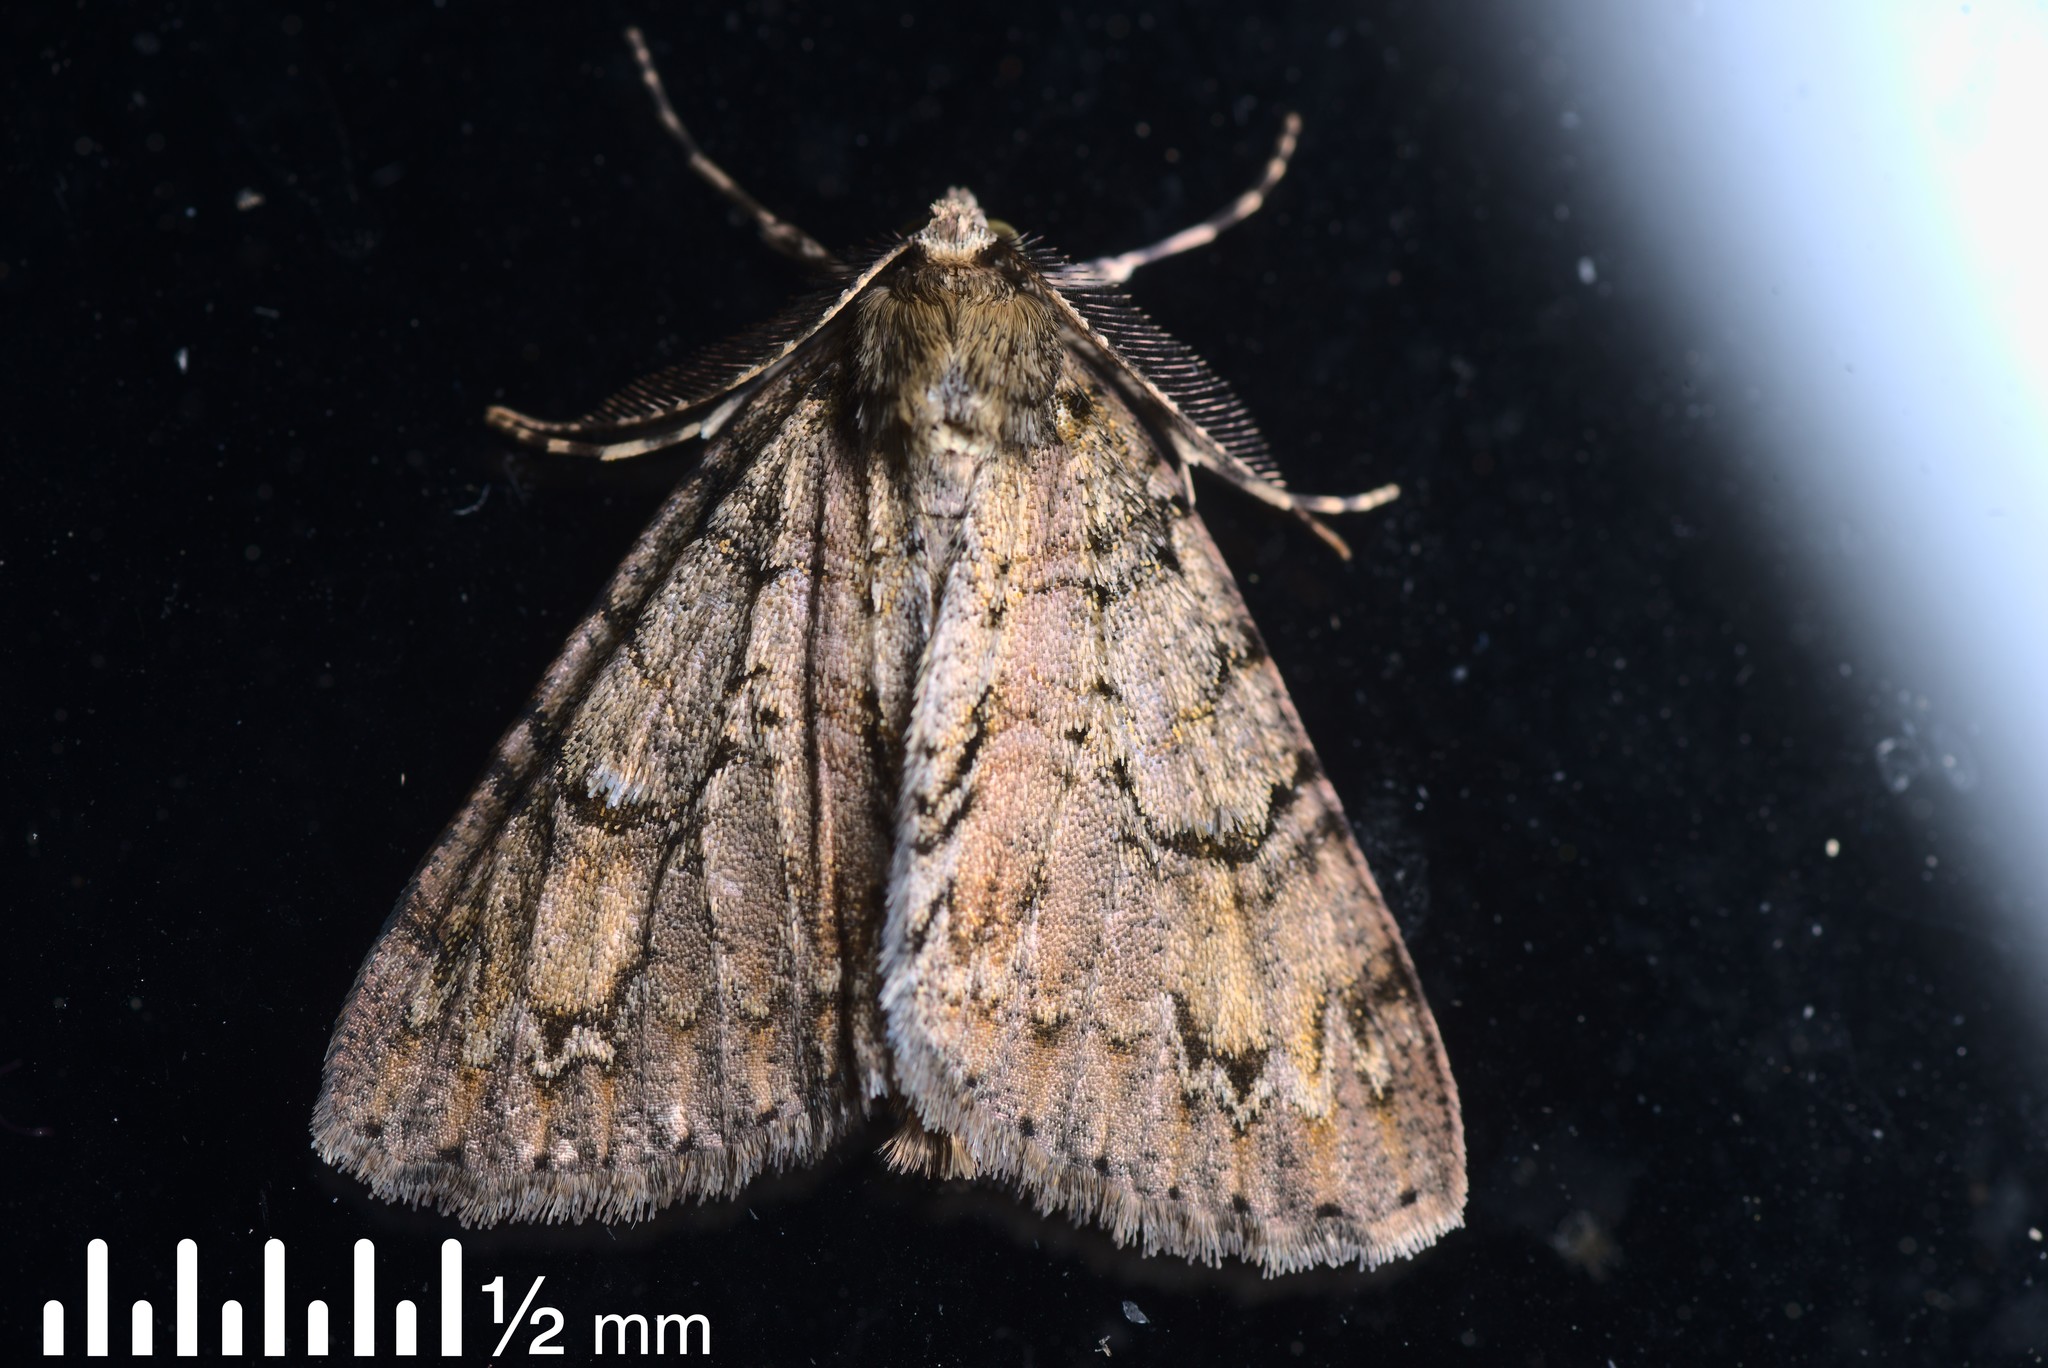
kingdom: Animalia
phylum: Arthropoda
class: Insecta
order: Lepidoptera
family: Geometridae
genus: Pseudocoremia
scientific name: Pseudocoremia suavis
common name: Common forest looper
